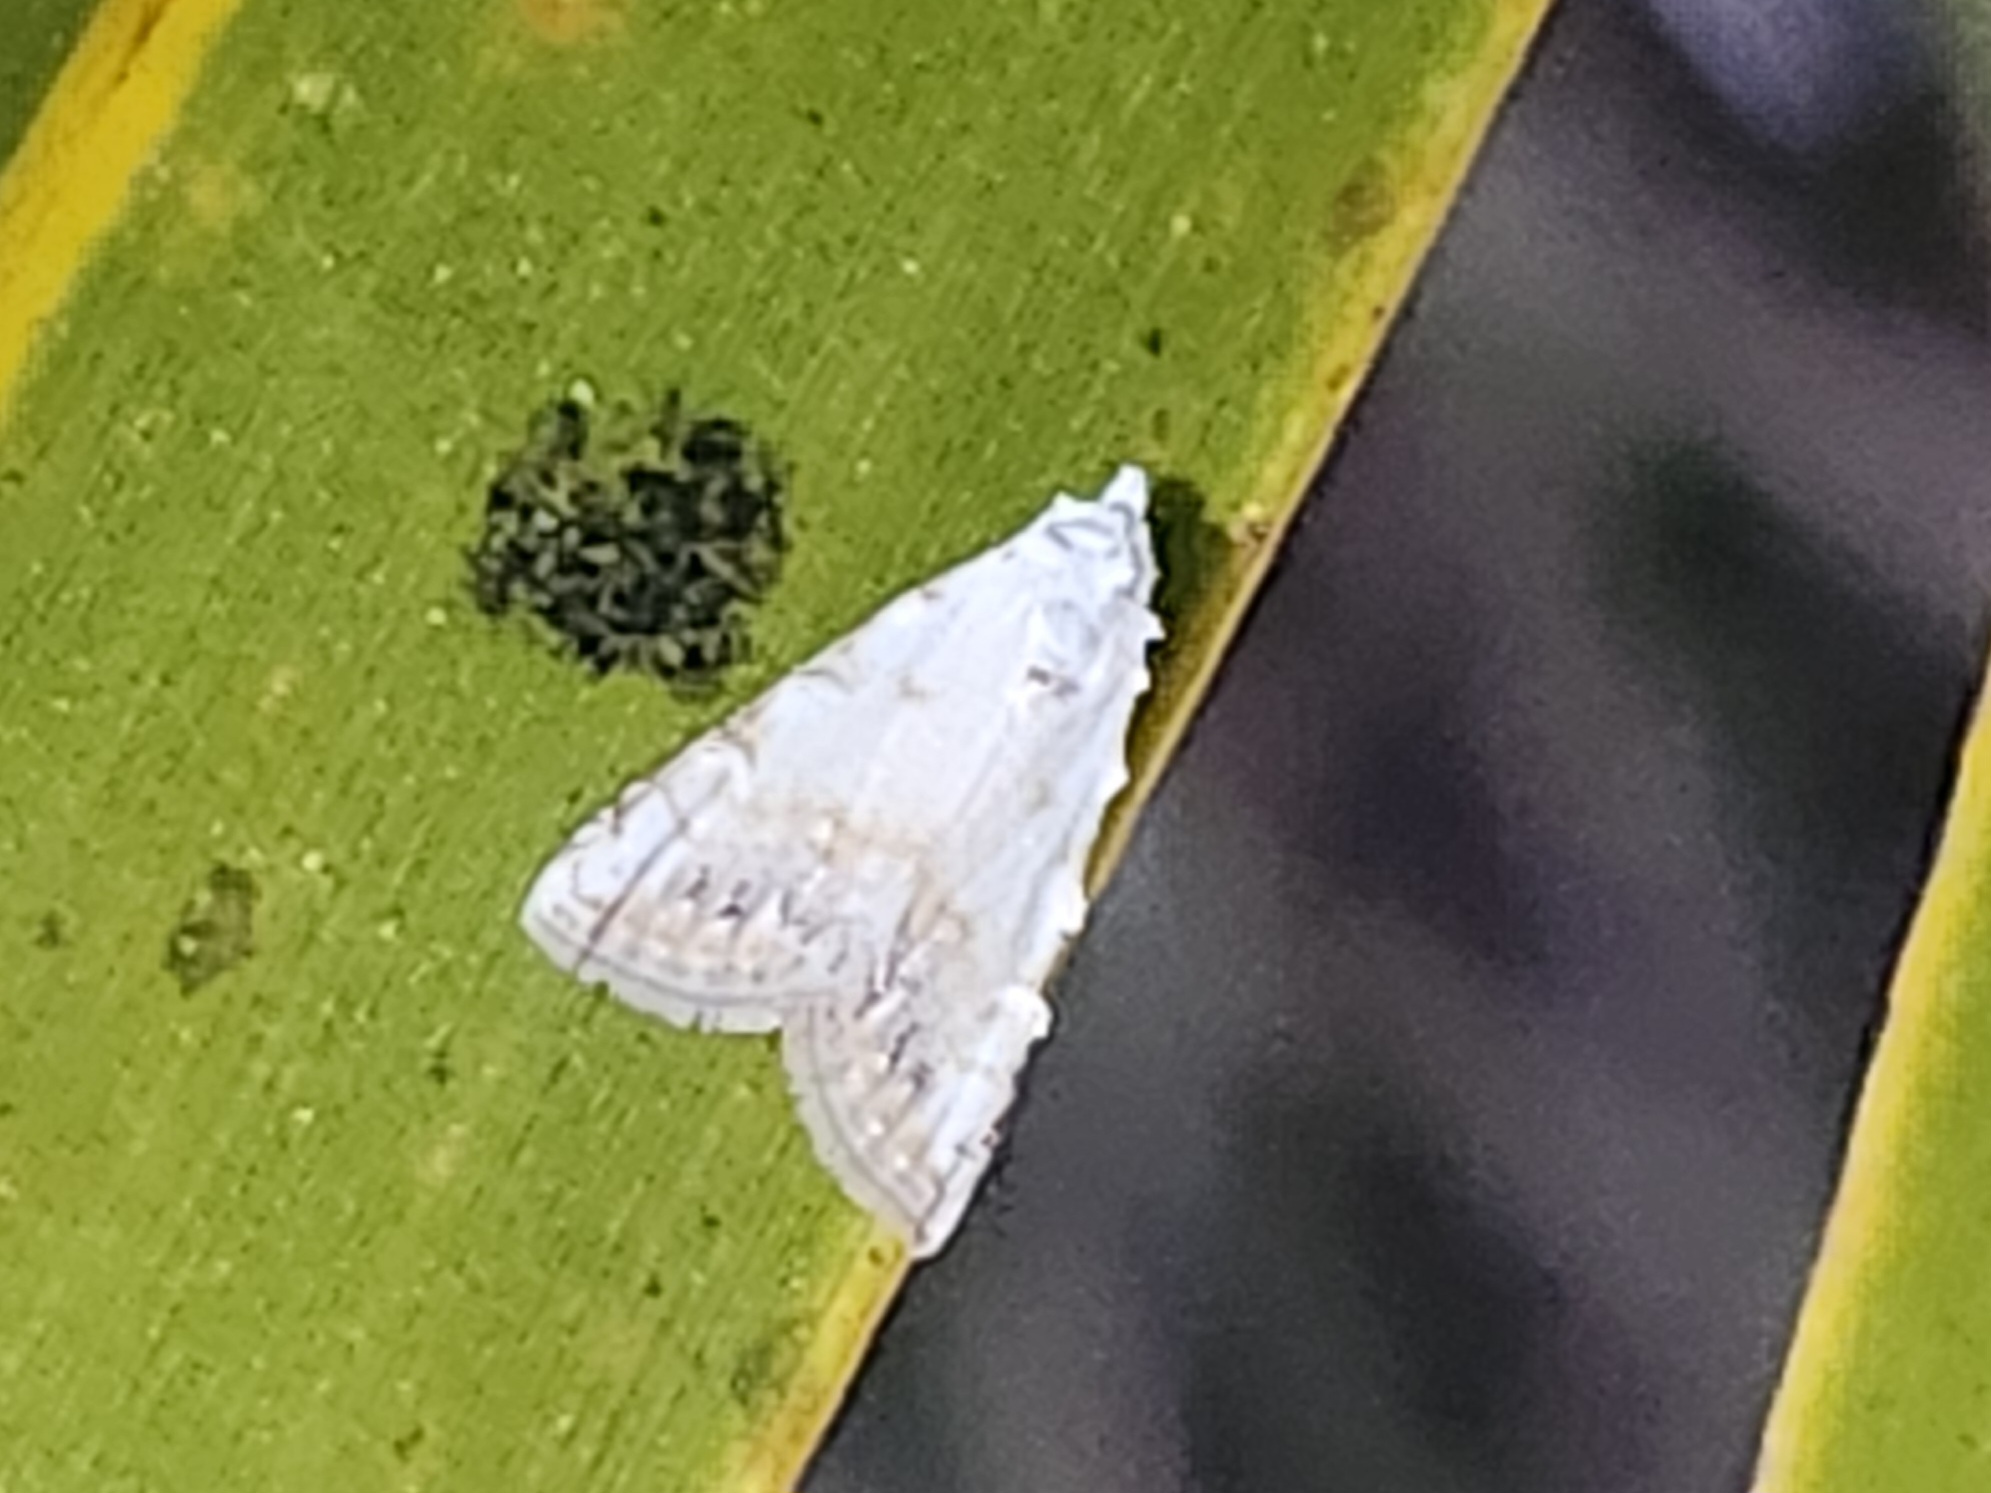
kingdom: Animalia
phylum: Arthropoda
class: Insecta
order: Lepidoptera
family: Nolidae
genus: Nola
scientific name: Nola cereella
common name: Sorghum webworm moth
